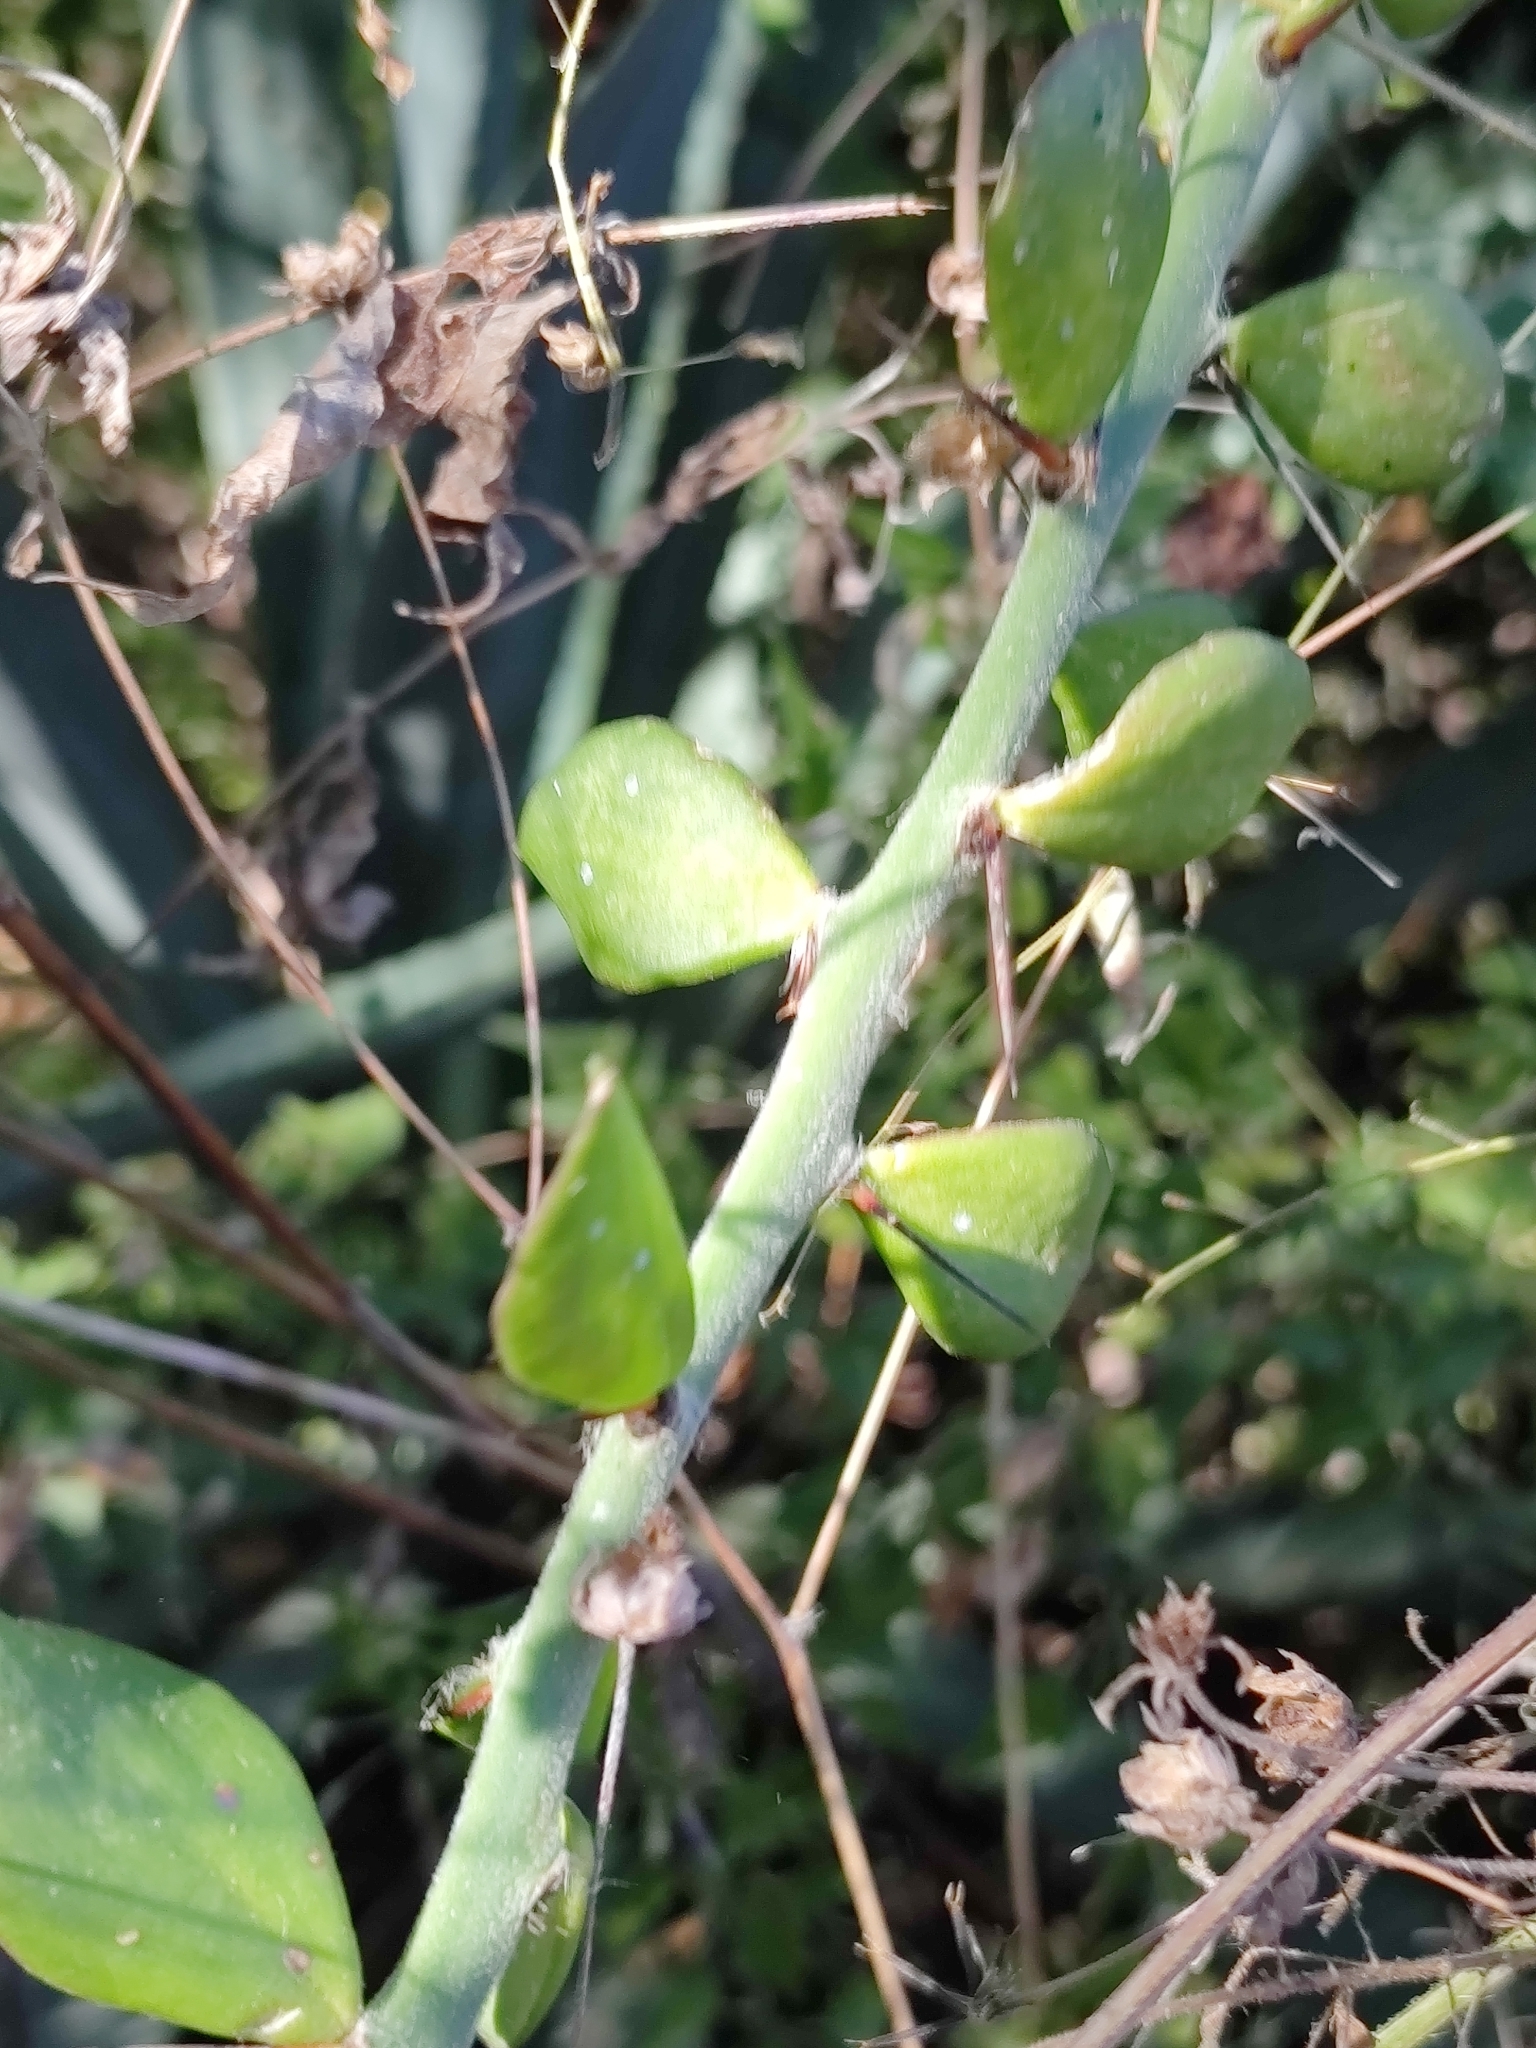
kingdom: Plantae
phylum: Tracheophyta
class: Magnoliopsida
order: Caryophyllales
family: Cactaceae
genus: Pereskiopsis
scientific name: Pereskiopsis diguetii
